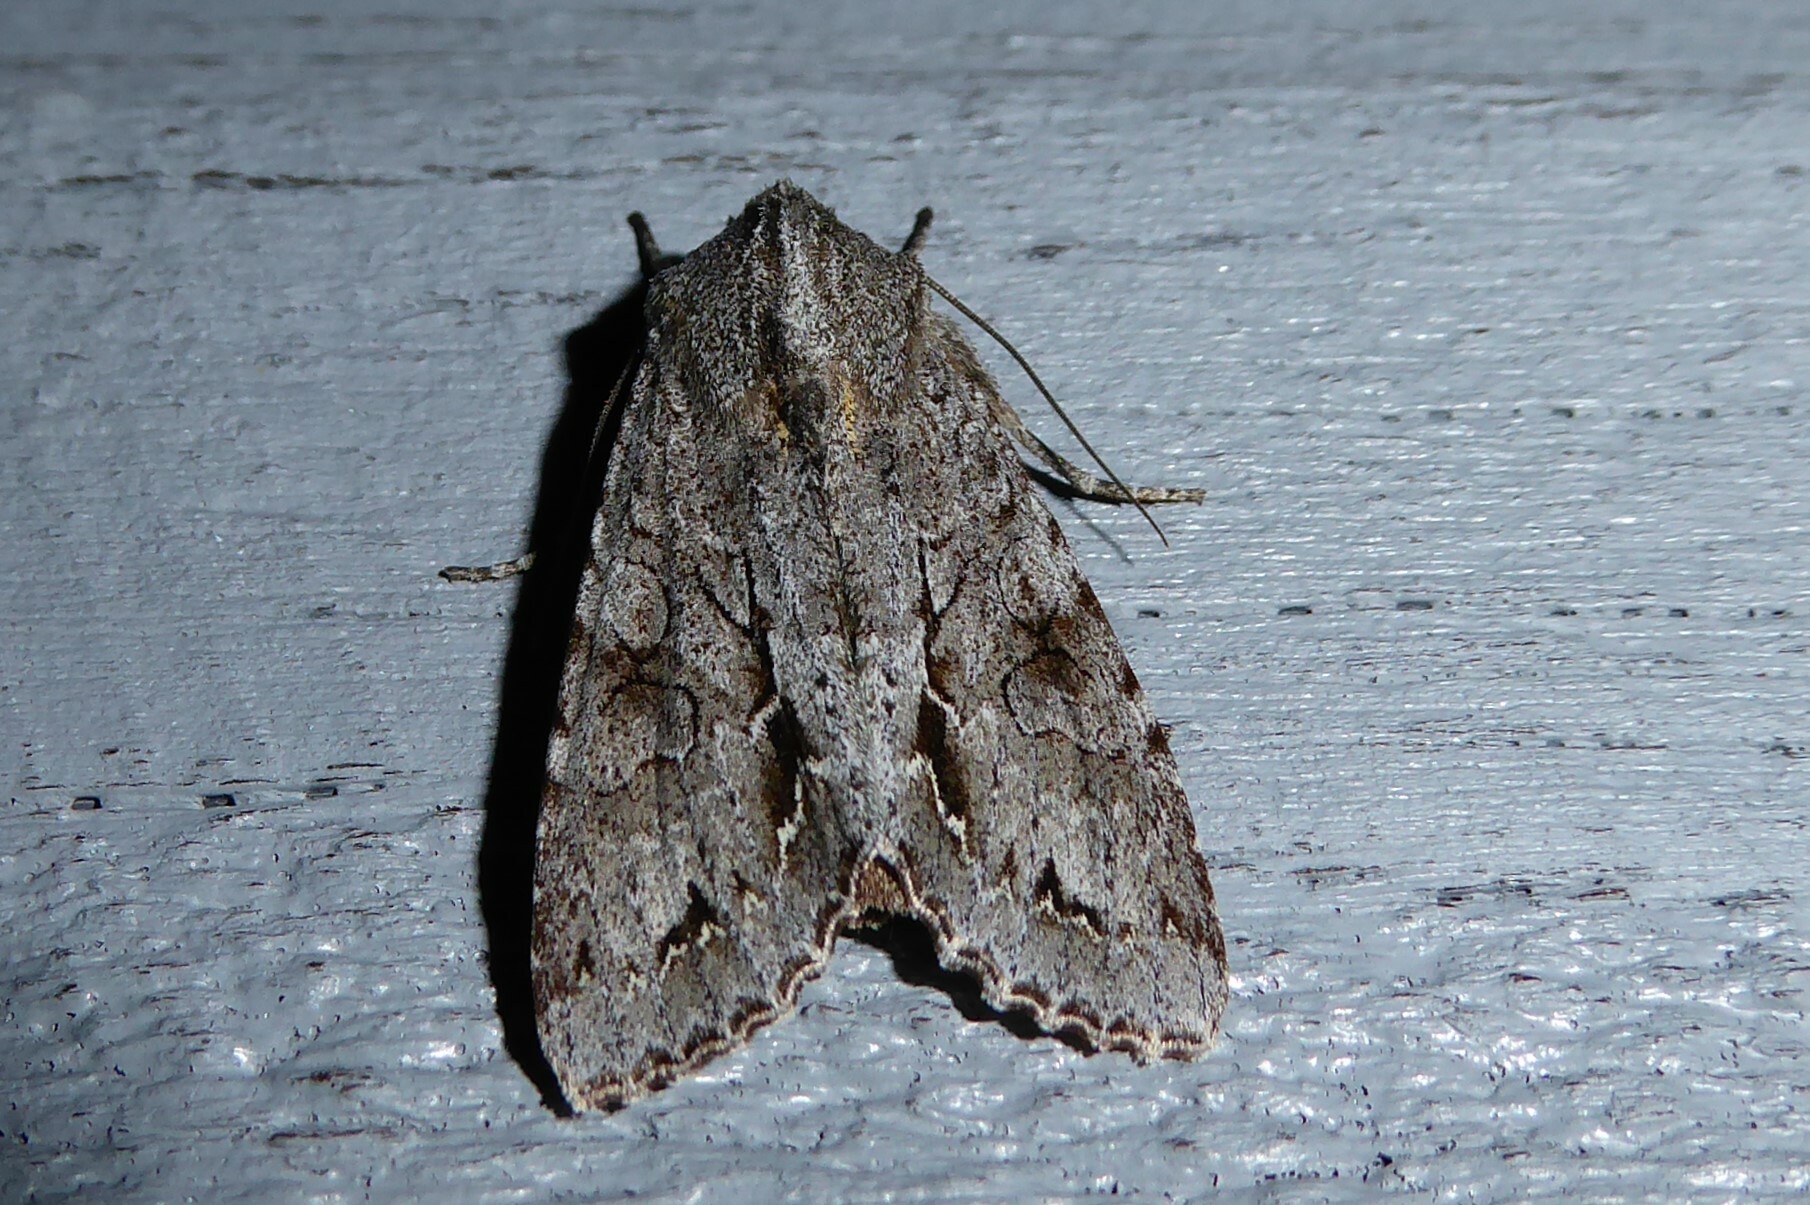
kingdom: Animalia
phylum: Arthropoda
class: Insecta
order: Lepidoptera
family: Noctuidae
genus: Ichneutica
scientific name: Ichneutica
